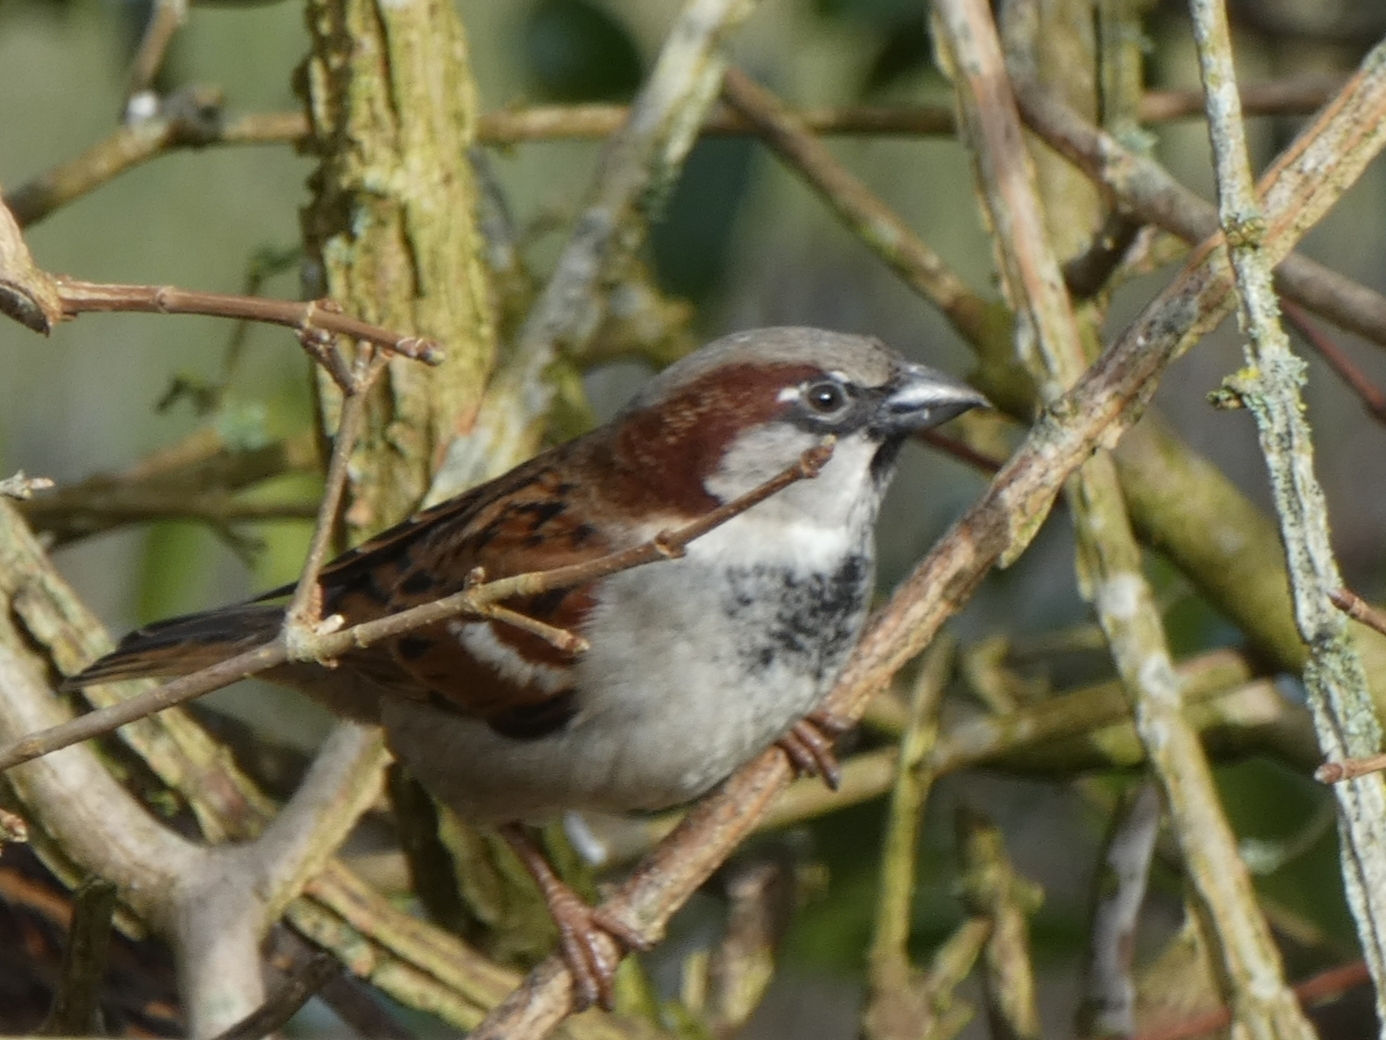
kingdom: Animalia
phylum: Chordata
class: Aves
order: Passeriformes
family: Passeridae
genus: Passer
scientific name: Passer domesticus
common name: House sparrow
